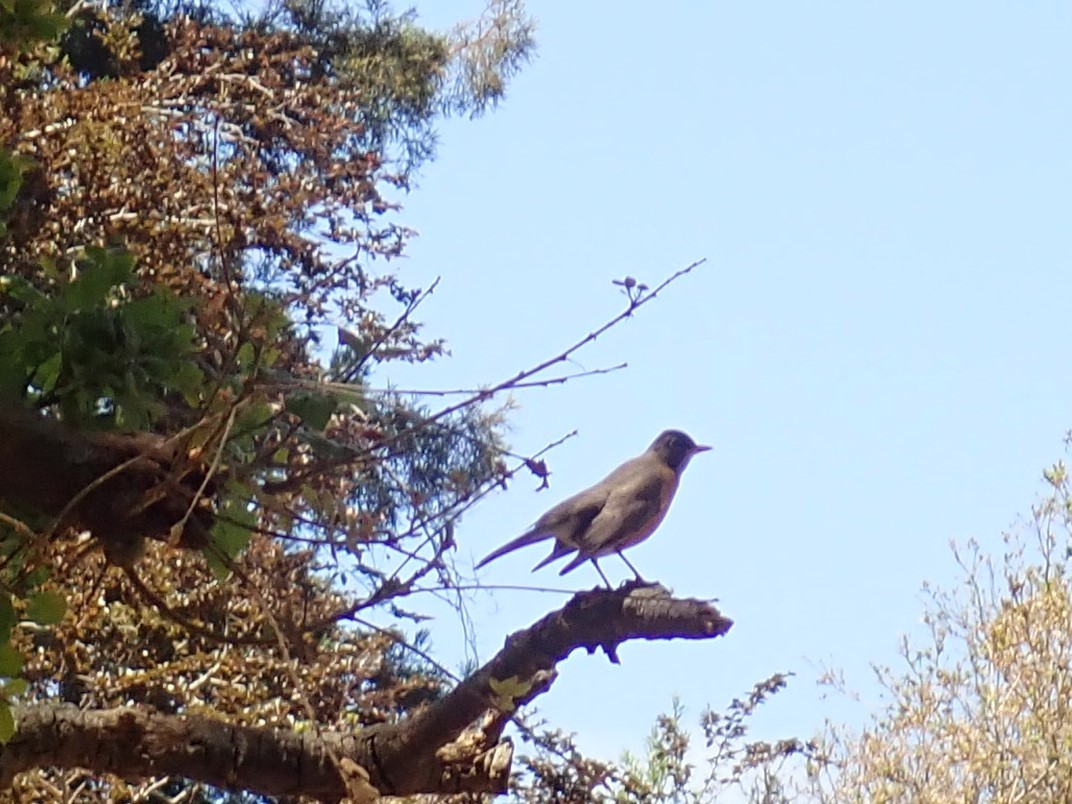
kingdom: Animalia
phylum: Chordata
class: Aves
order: Passeriformes
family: Turdidae
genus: Turdus
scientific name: Turdus migratorius
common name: American robin
